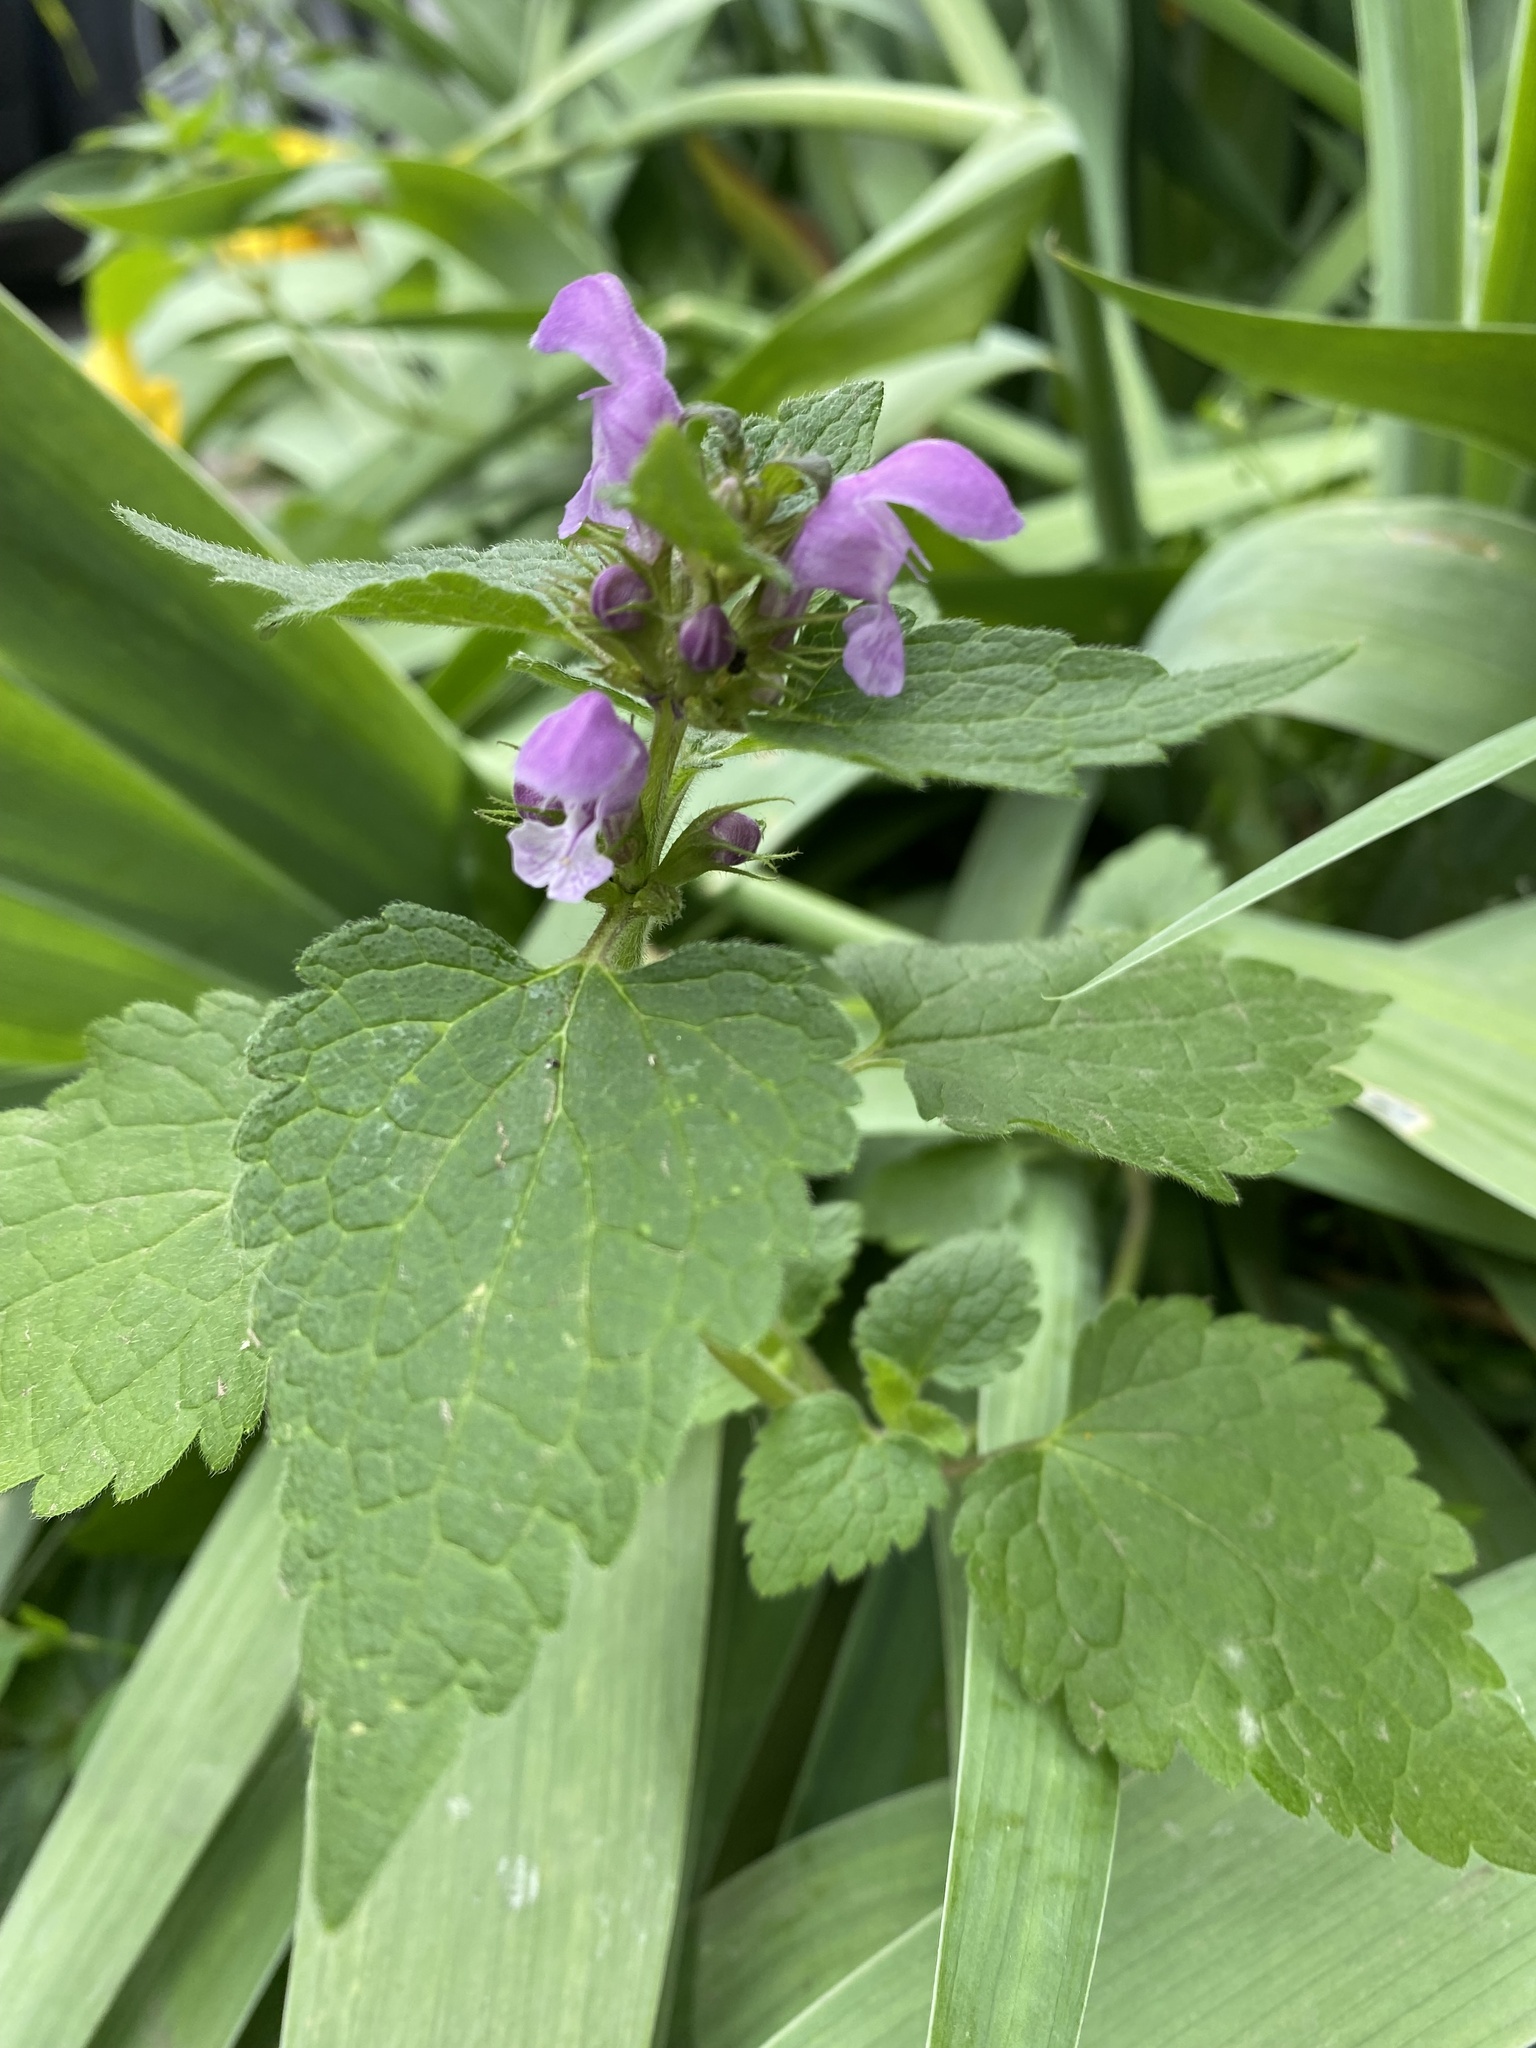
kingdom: Plantae
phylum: Tracheophyta
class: Magnoliopsida
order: Lamiales
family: Lamiaceae
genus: Lamium
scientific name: Lamium maculatum
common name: Spotted dead-nettle
